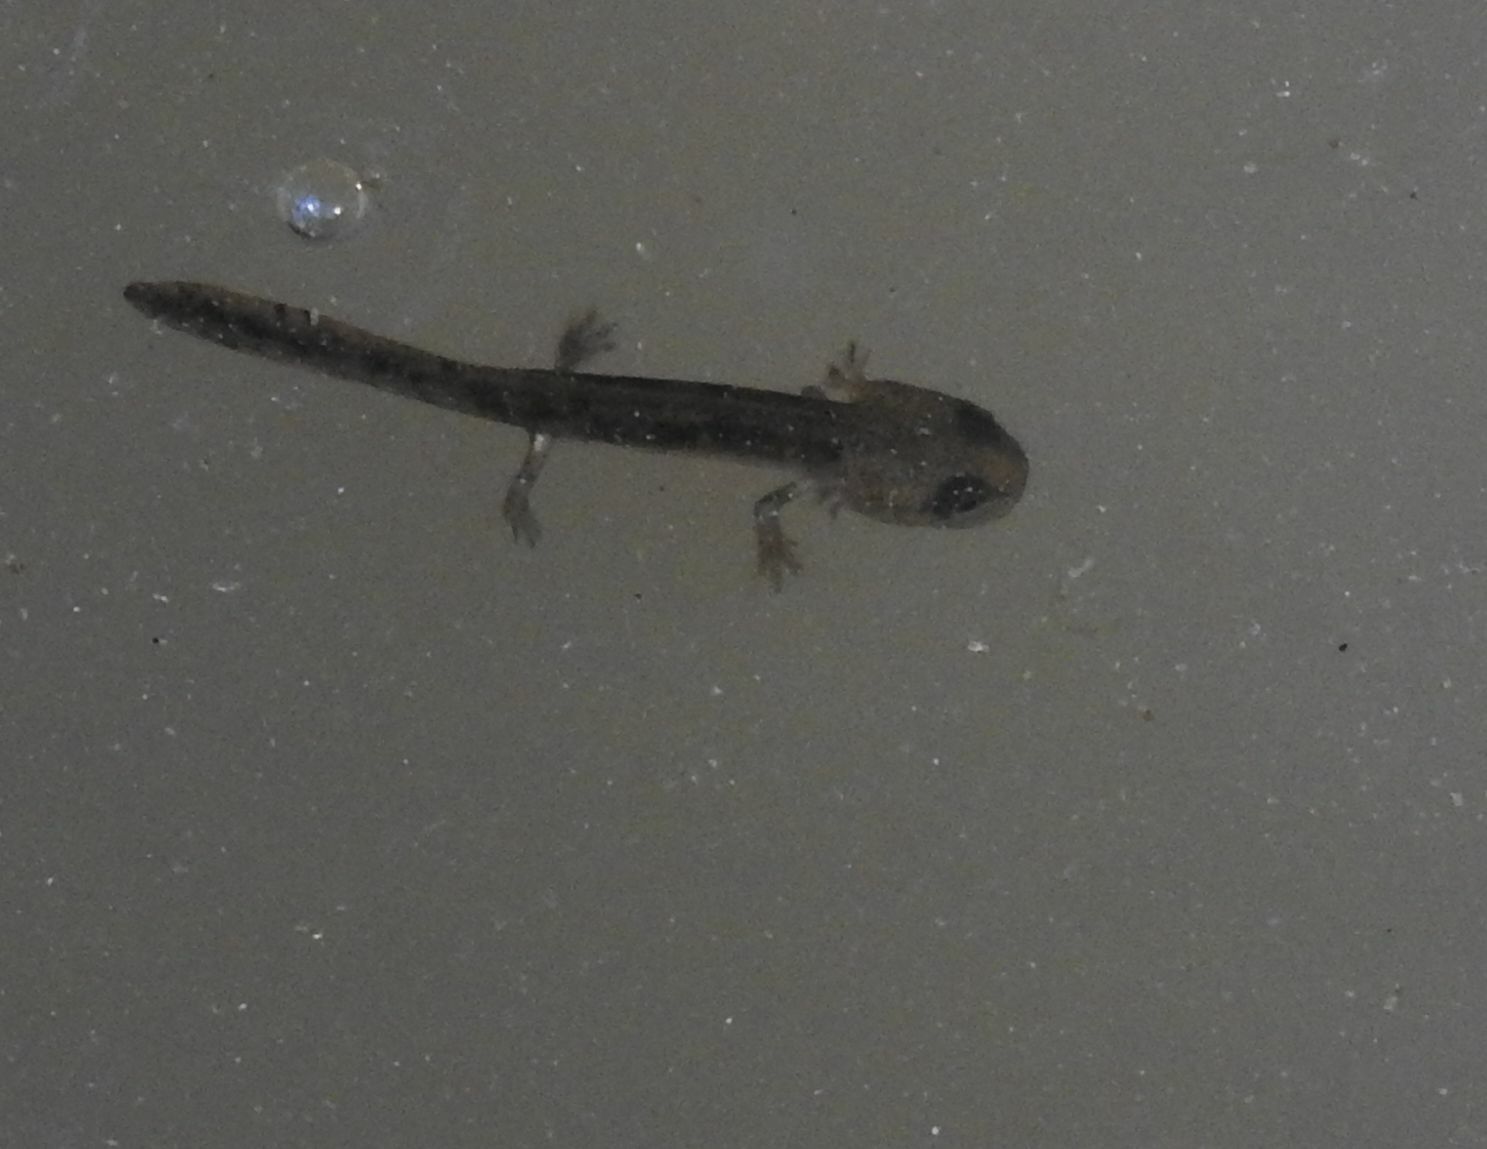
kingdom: Animalia
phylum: Chordata
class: Amphibia
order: Caudata
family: Salamandridae
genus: Salamandra
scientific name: Salamandra salamandra
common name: Fire salamander
